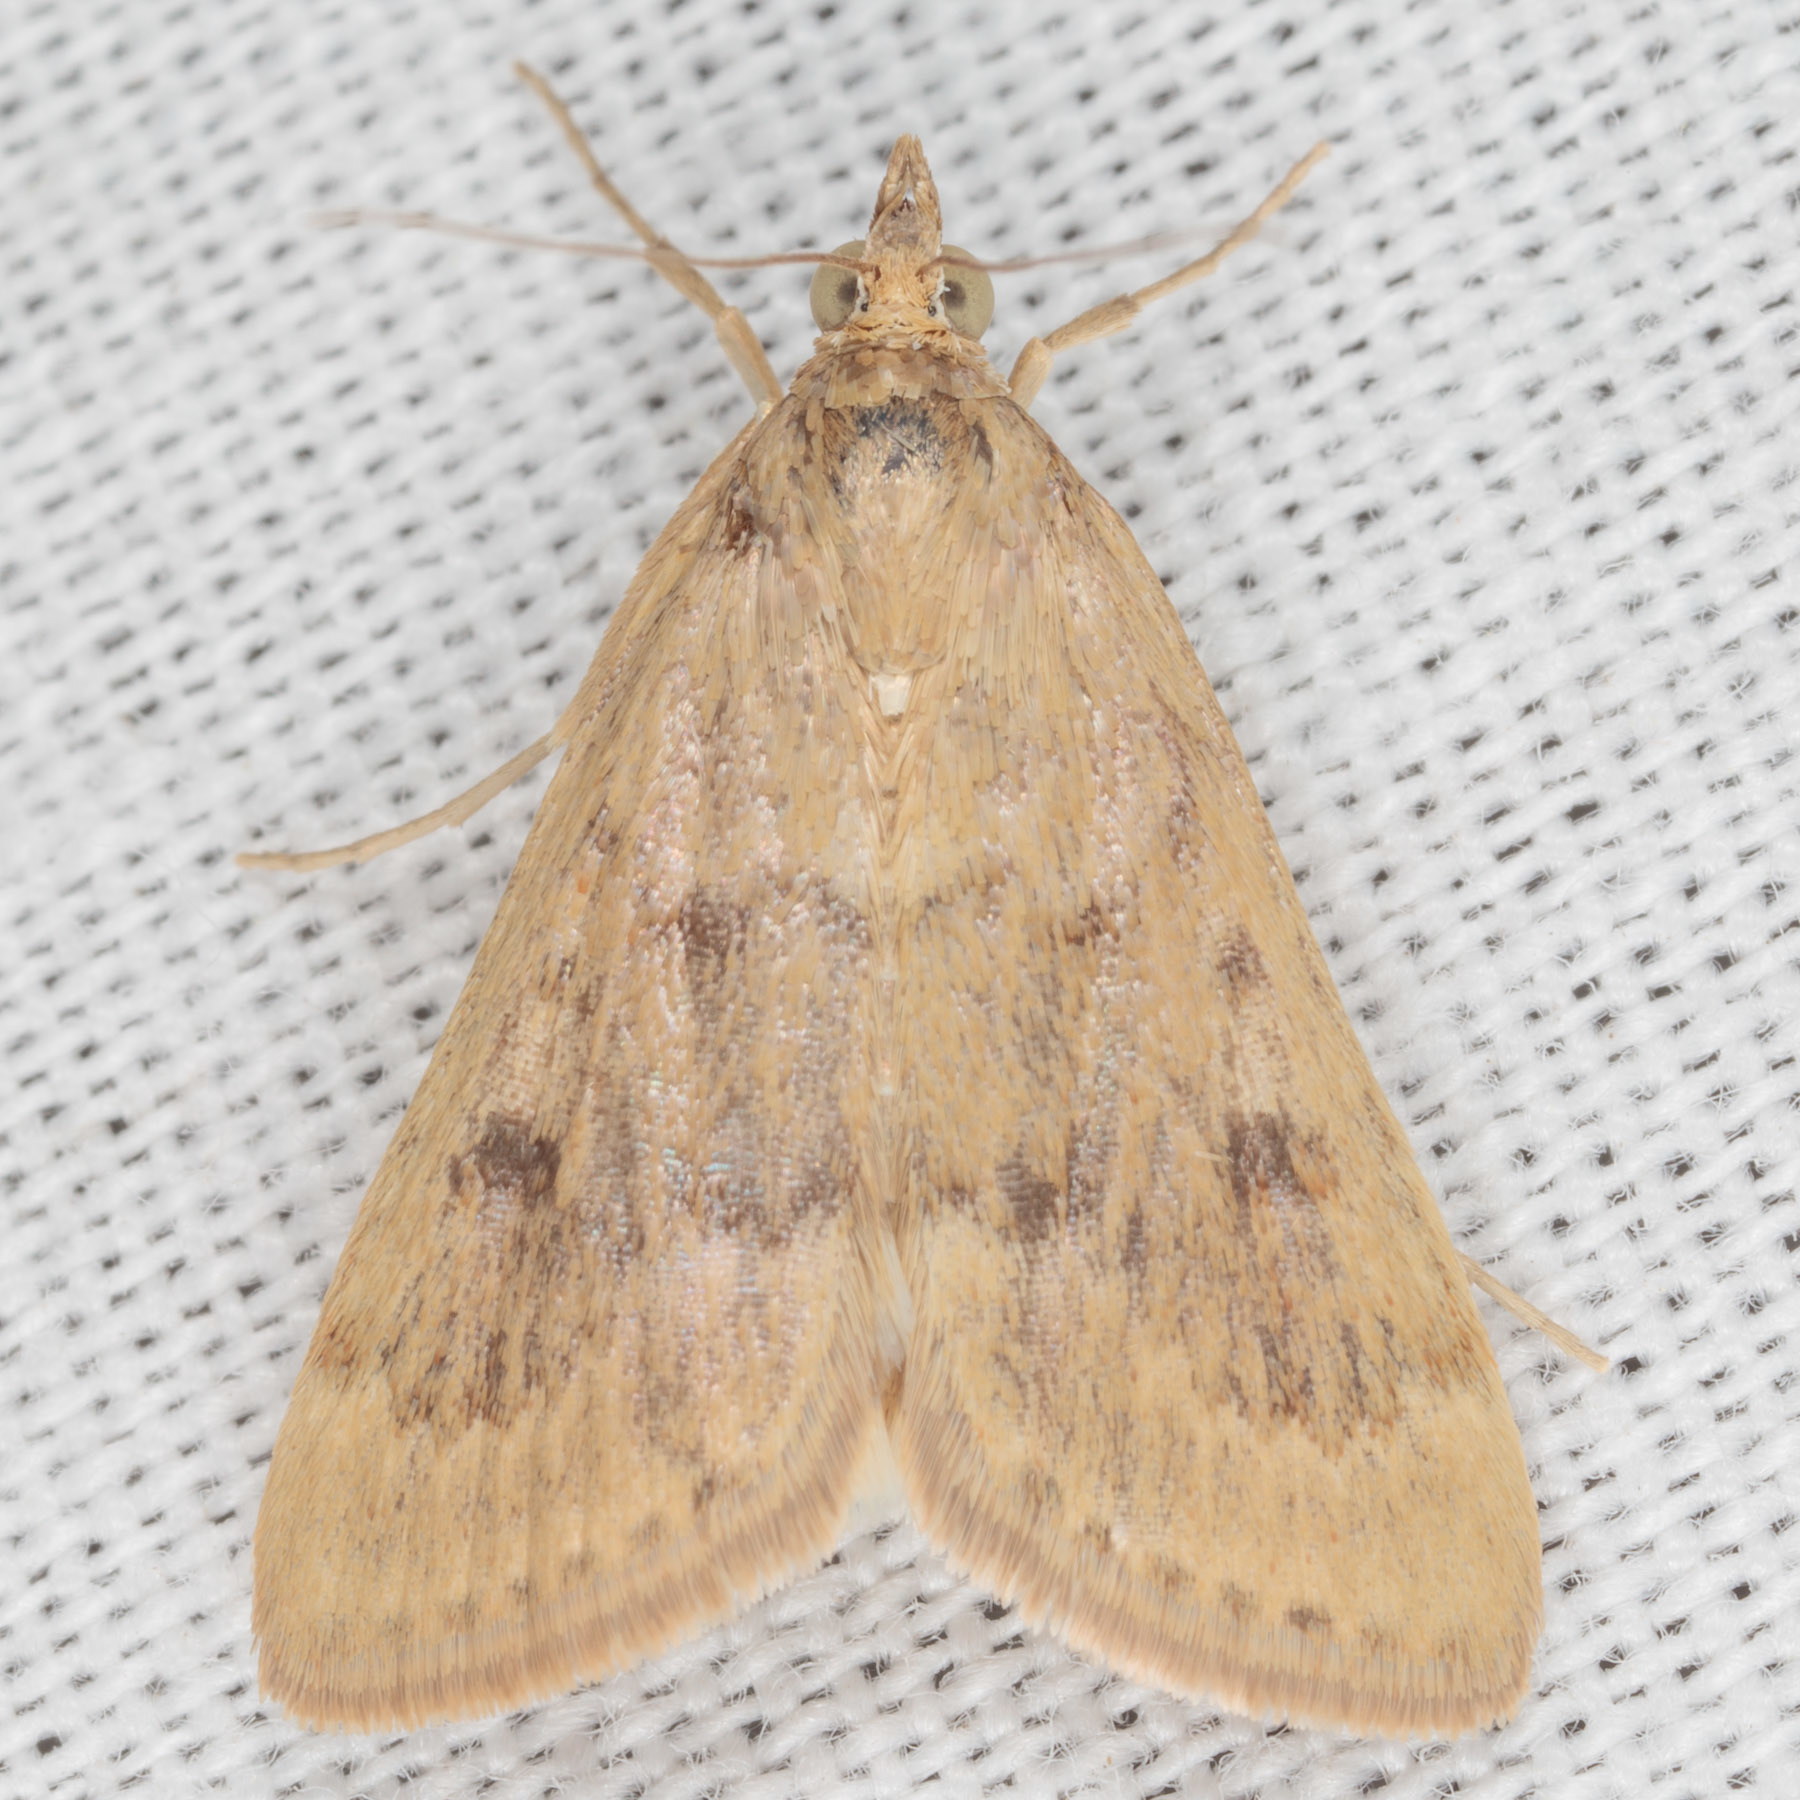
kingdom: Animalia
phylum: Arthropoda
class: Insecta
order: Lepidoptera
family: Crambidae
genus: Achyra
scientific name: Achyra rantalis
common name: Garden webworm
